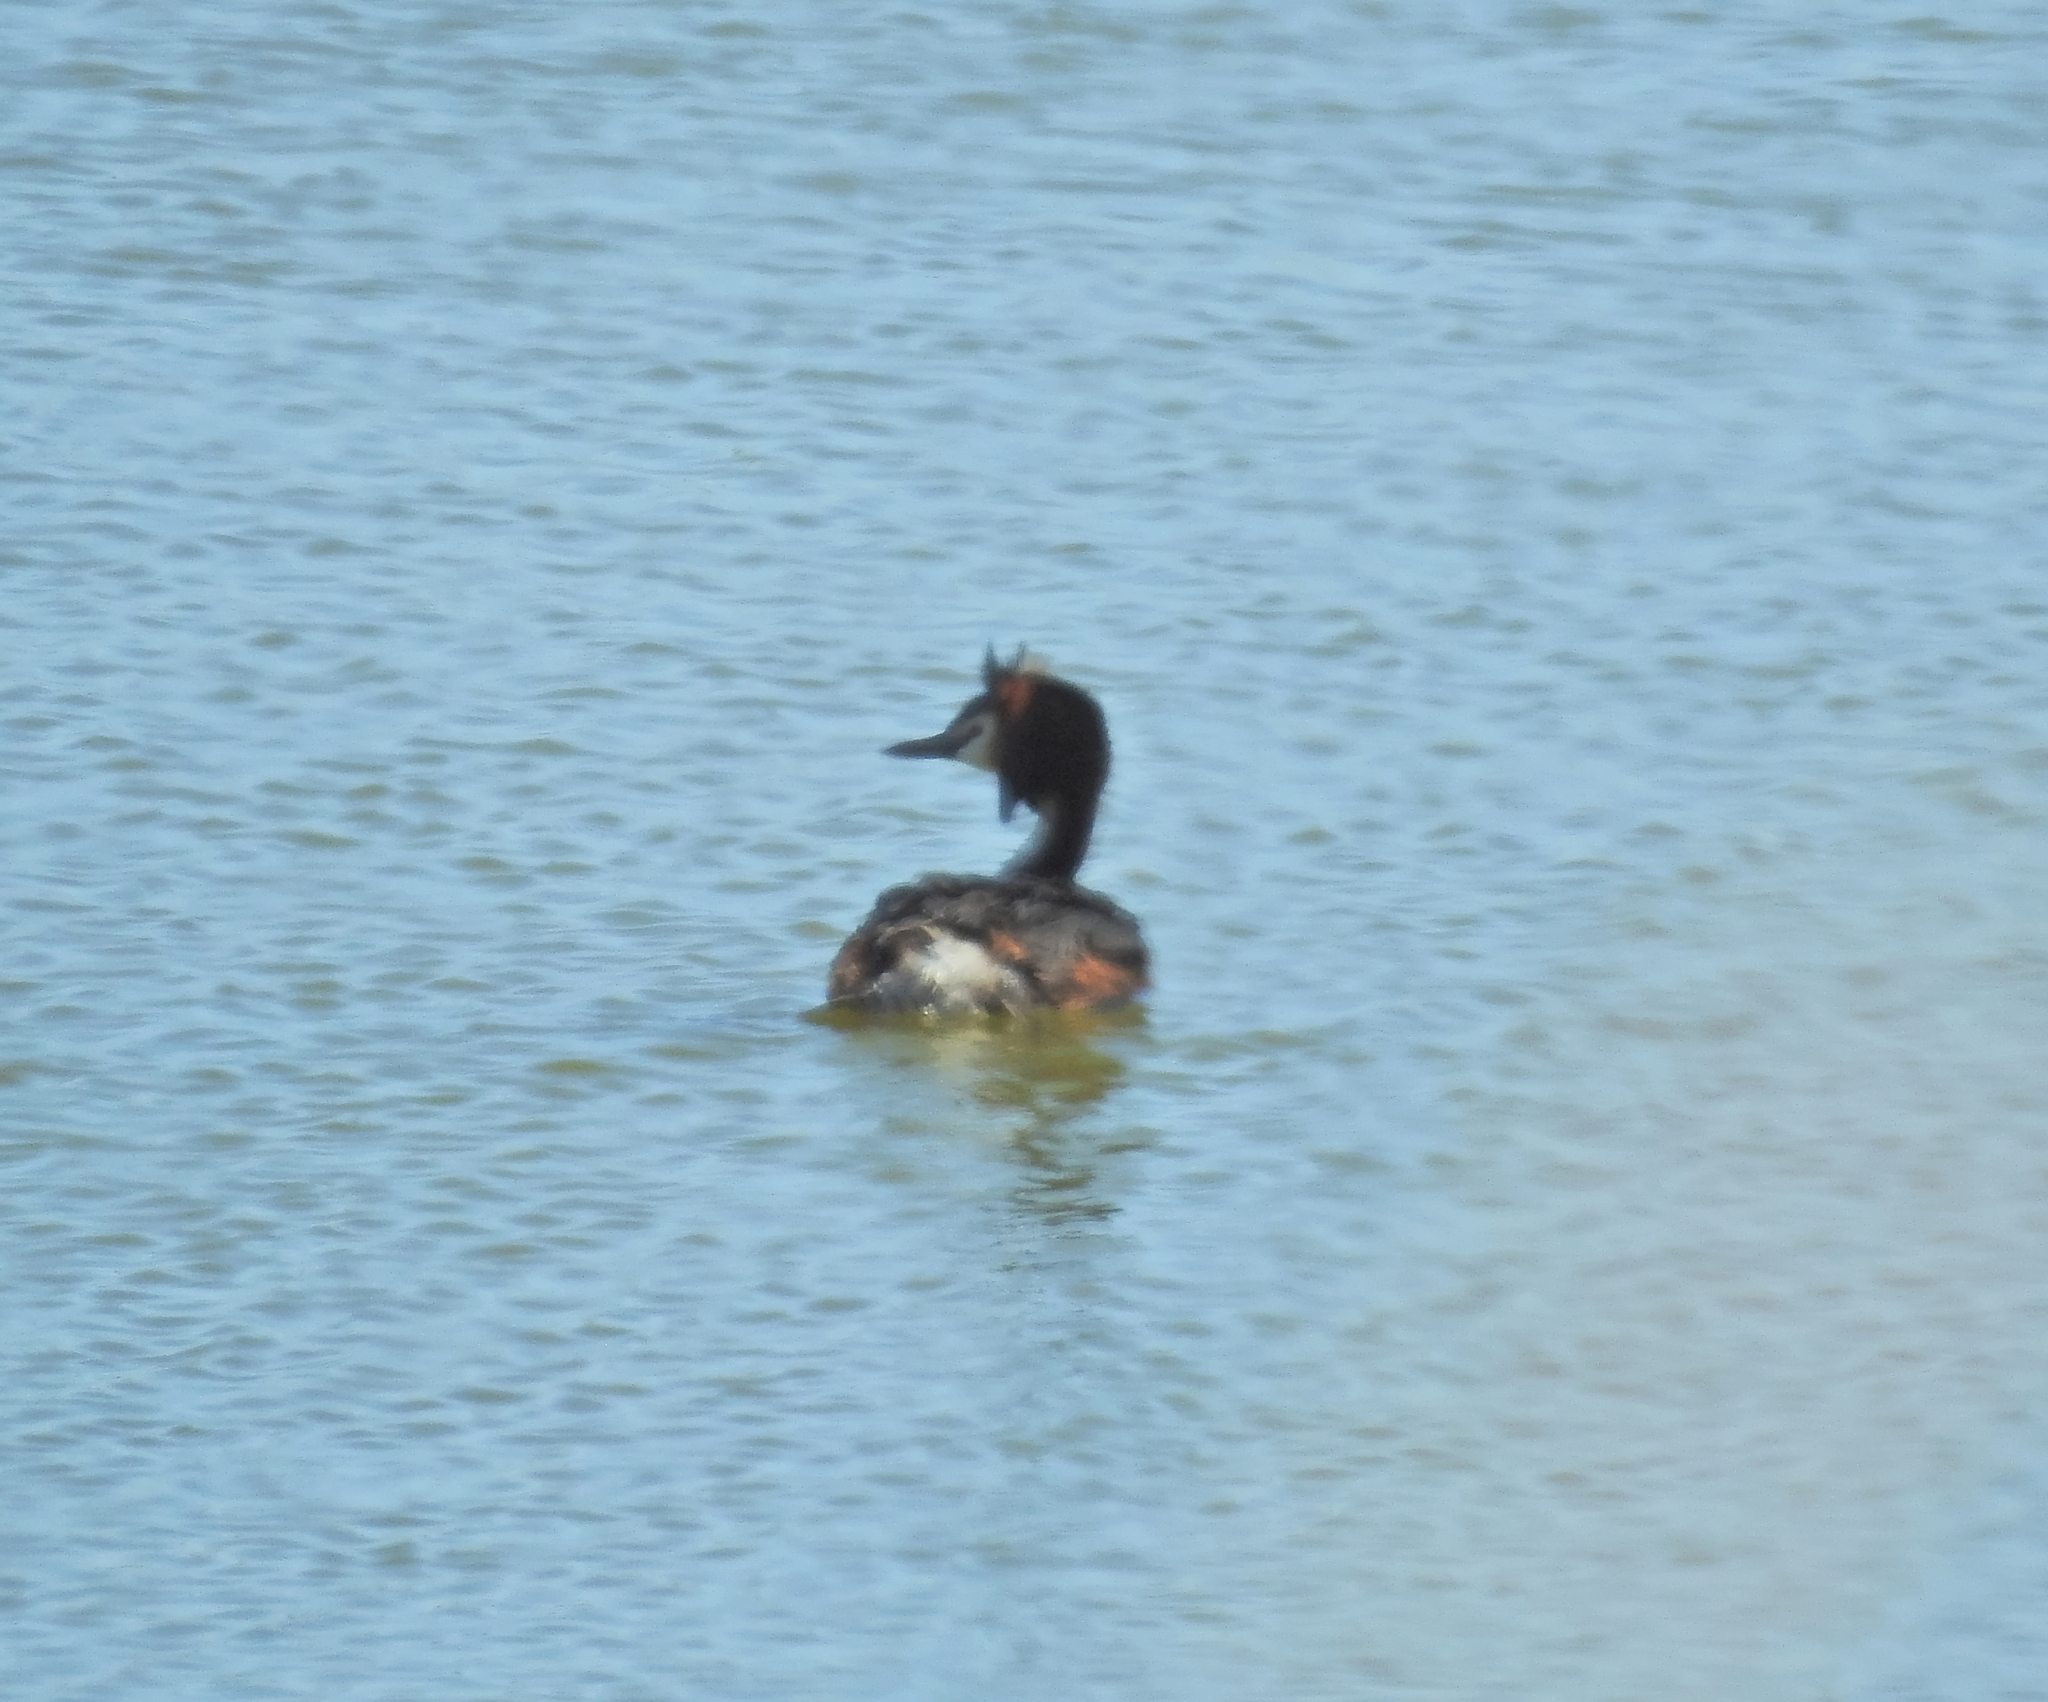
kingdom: Animalia
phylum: Chordata
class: Aves
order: Podicipediformes
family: Podicipedidae
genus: Podiceps
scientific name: Podiceps cristatus
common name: Great crested grebe
